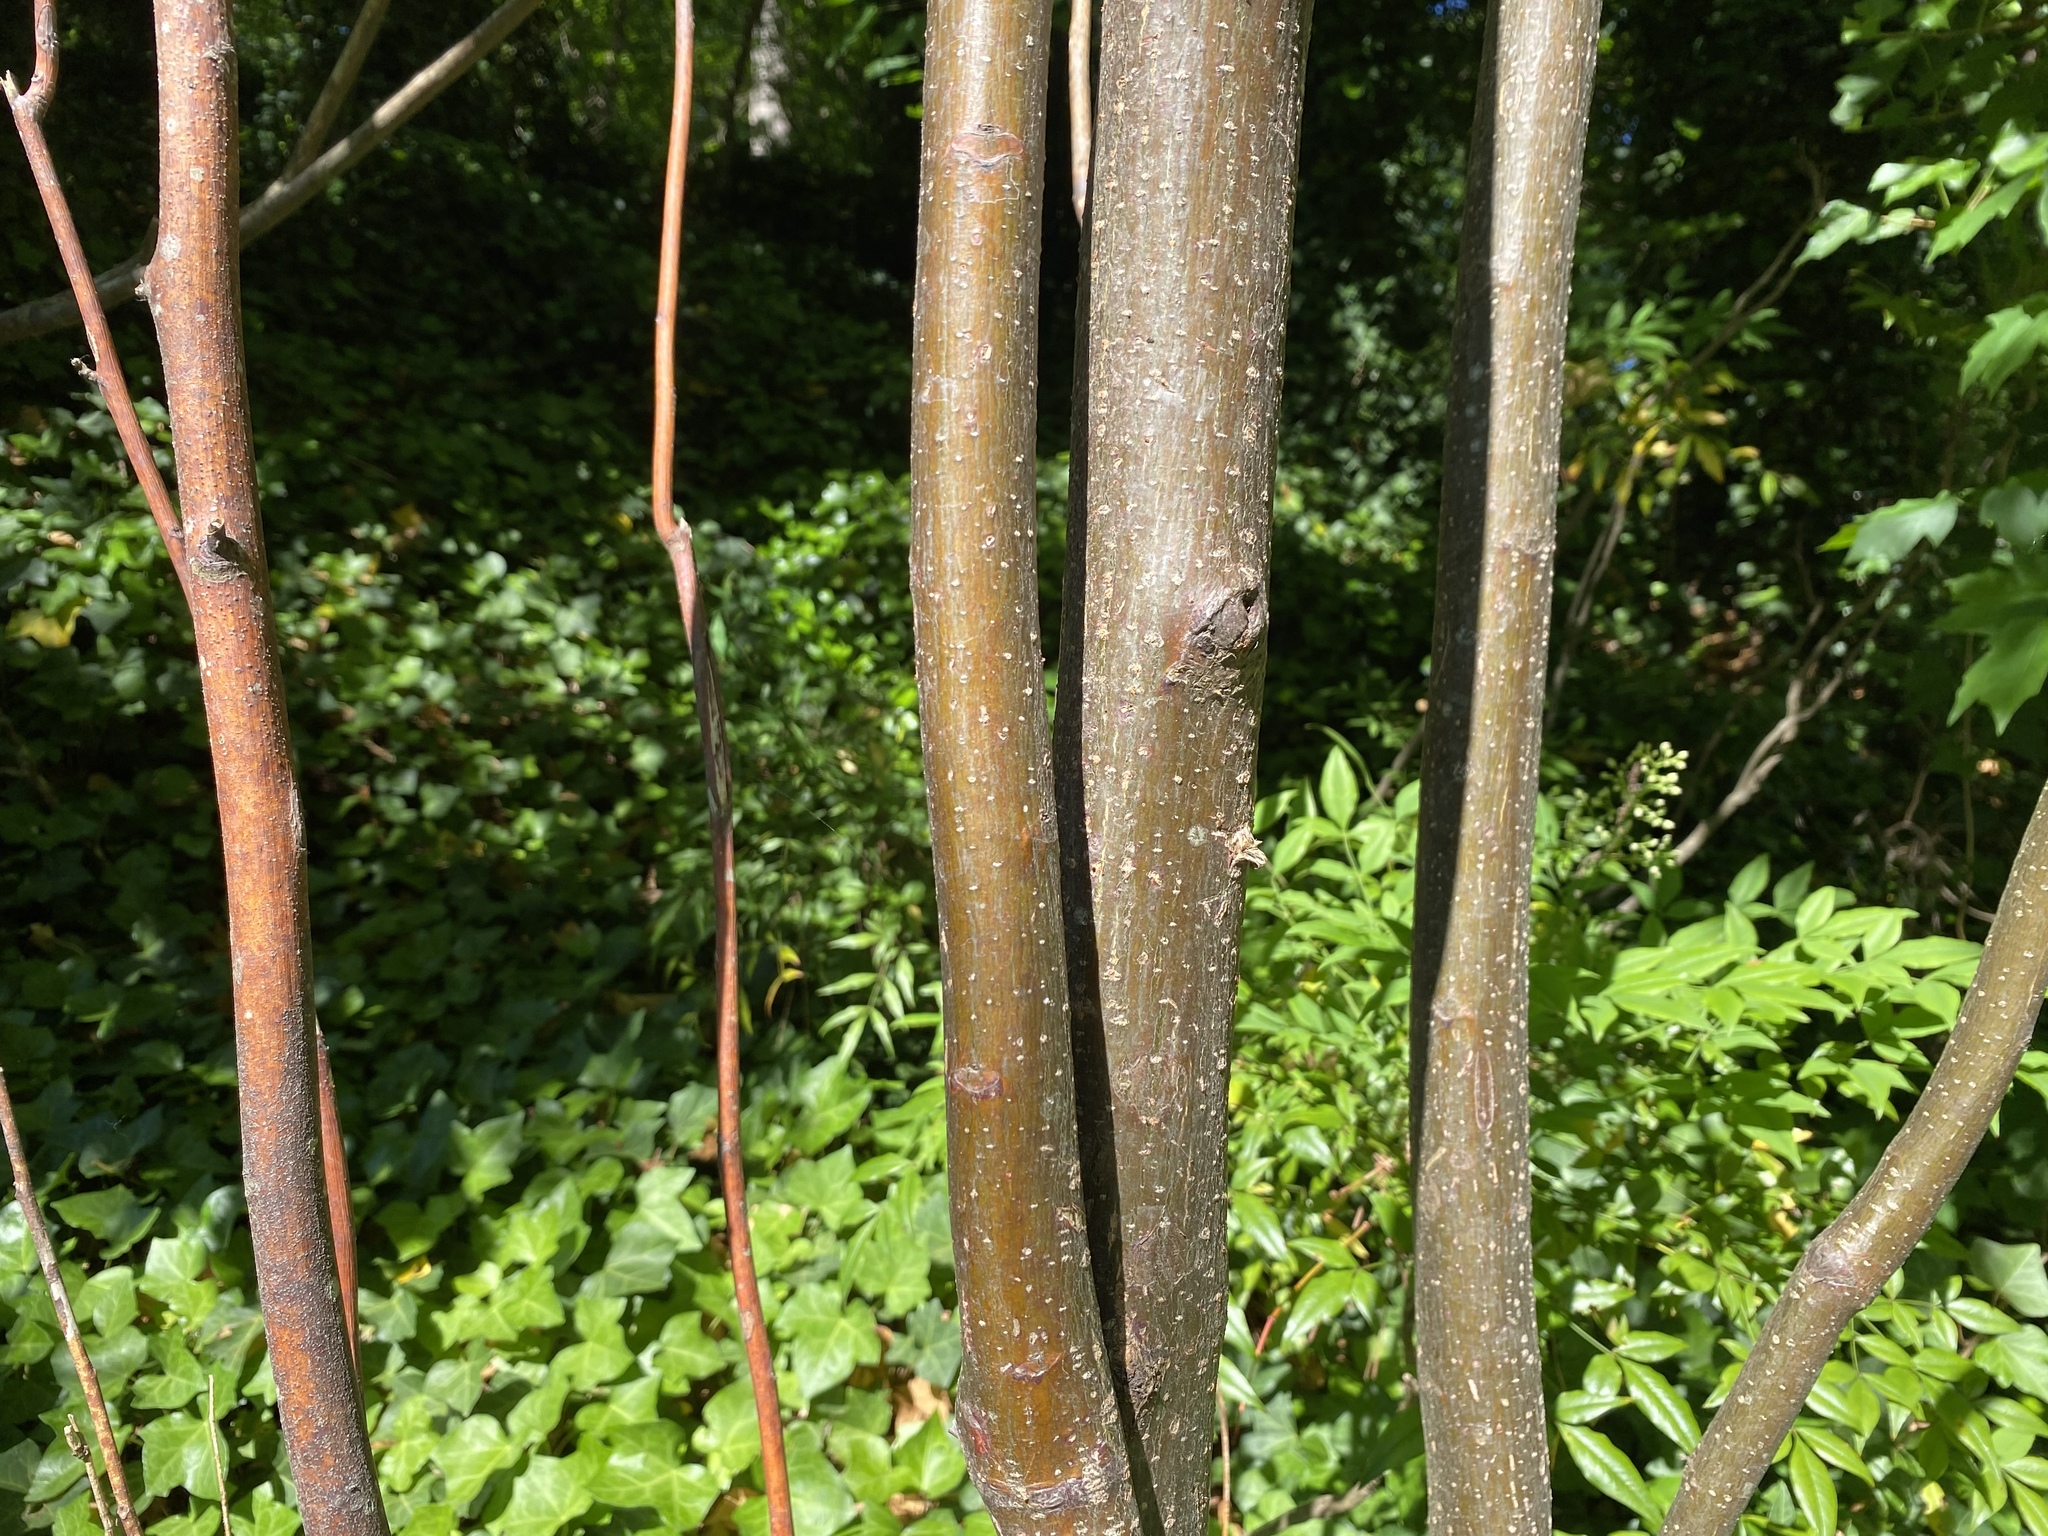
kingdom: Plantae
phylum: Tracheophyta
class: Magnoliopsida
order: Sapindales
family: Meliaceae
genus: Melia
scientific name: Melia azedarach
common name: Chinaberrytree
